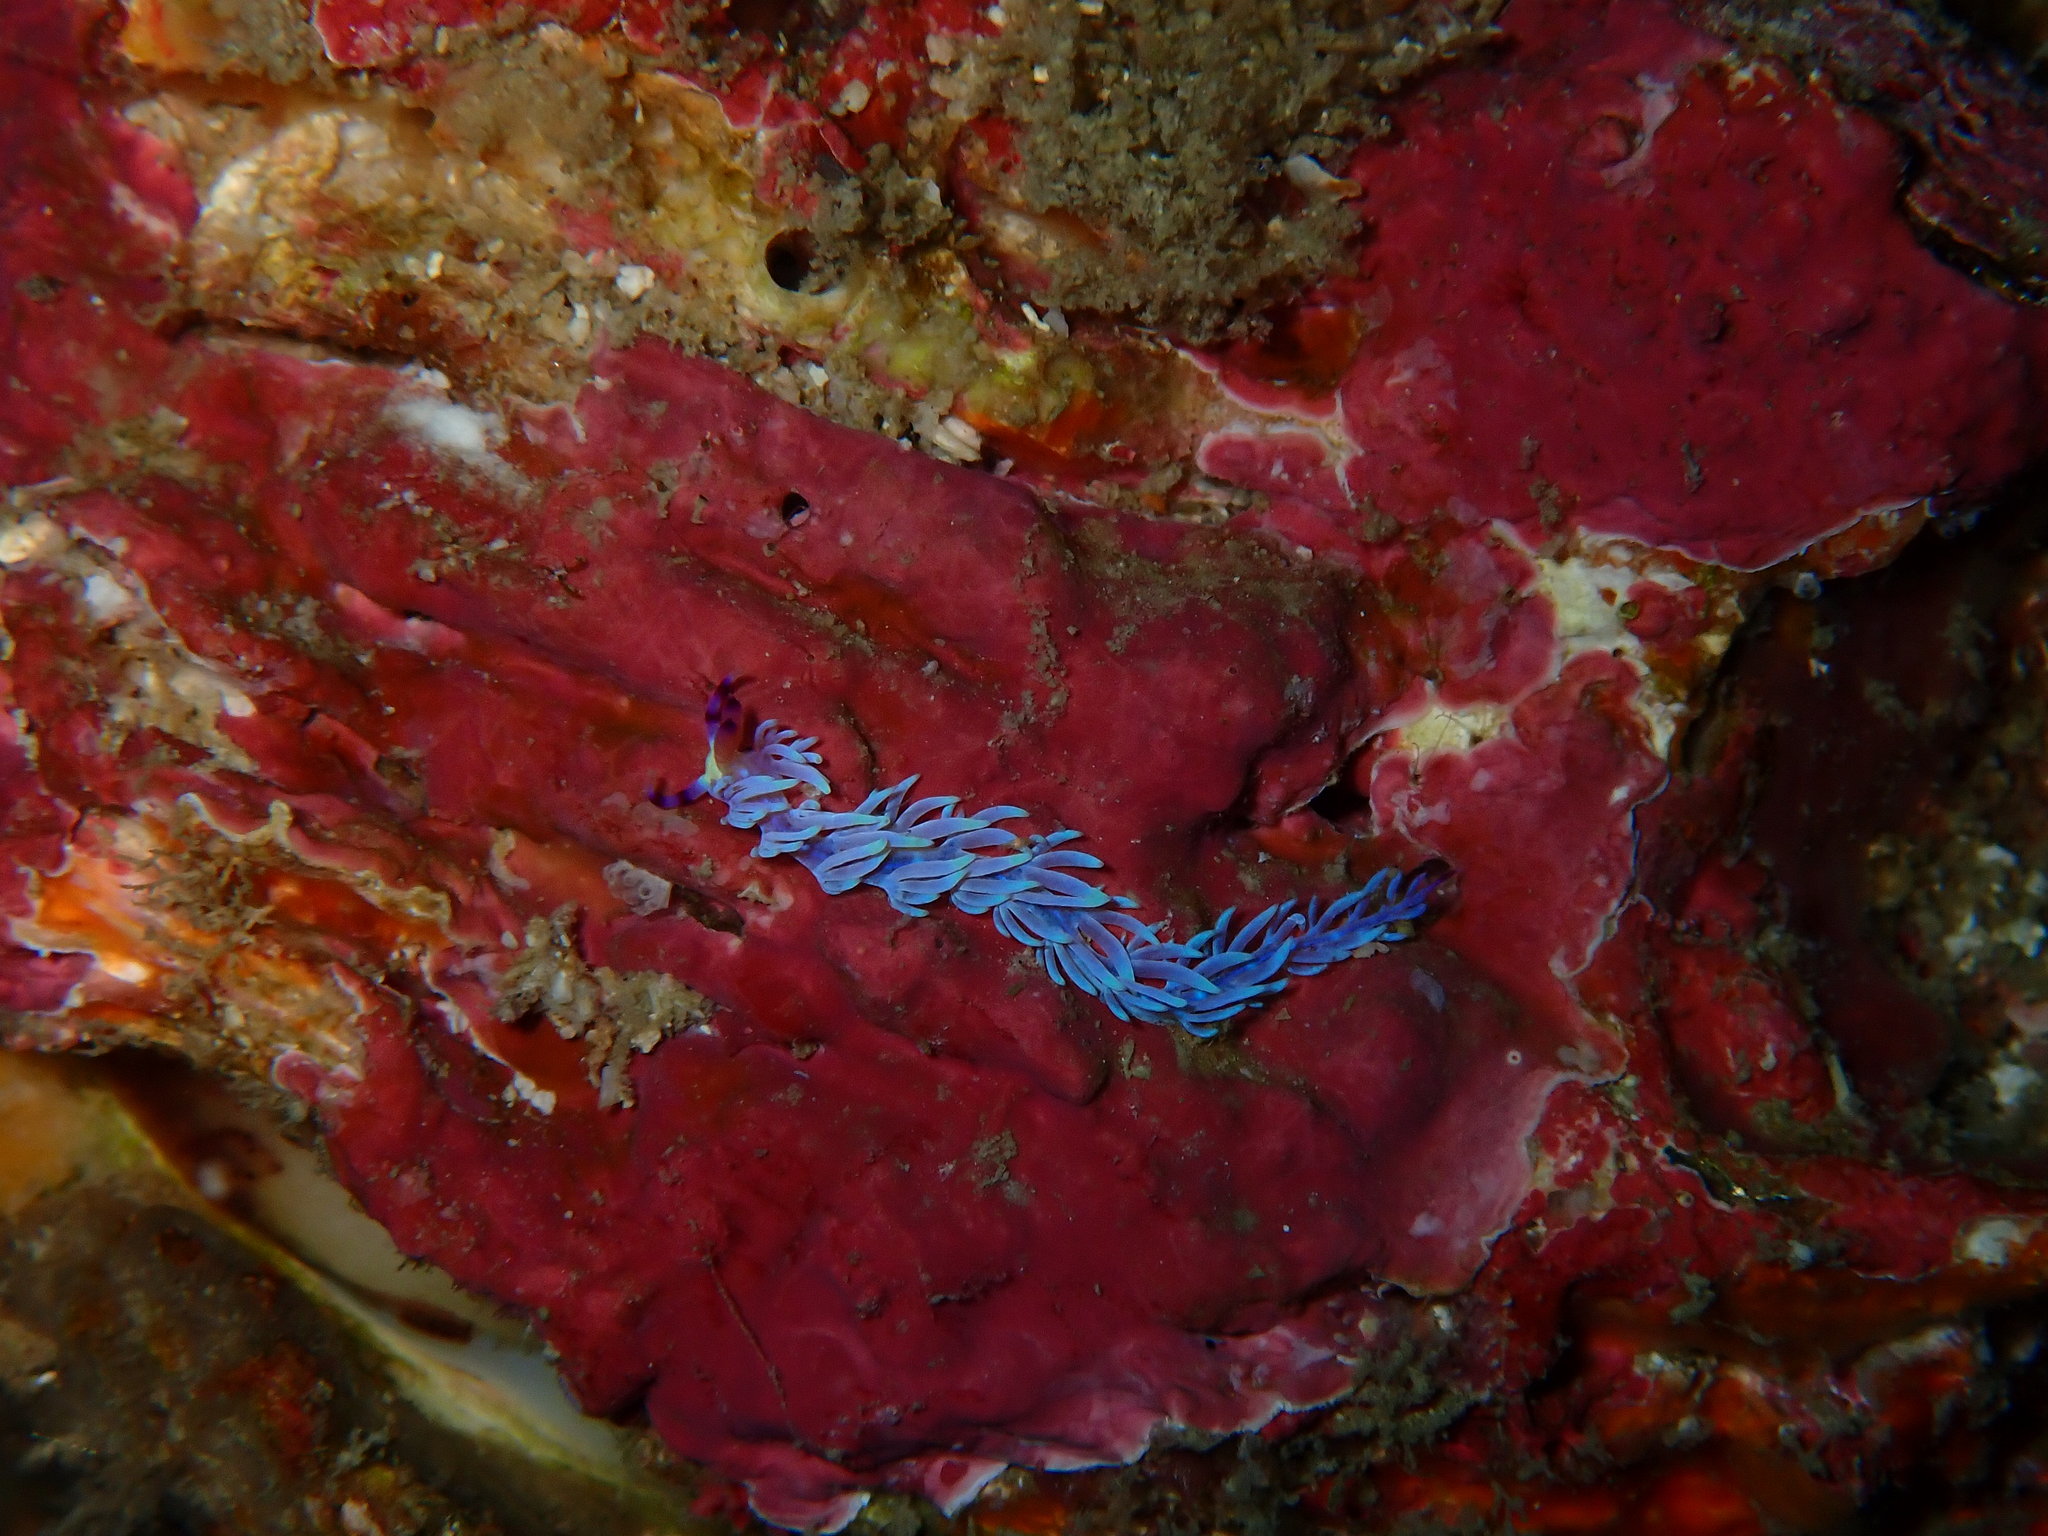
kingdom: Animalia
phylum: Mollusca
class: Gastropoda
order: Nudibranchia
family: Facelinidae
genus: Pteraeolidia
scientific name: Pteraeolidia semperi
